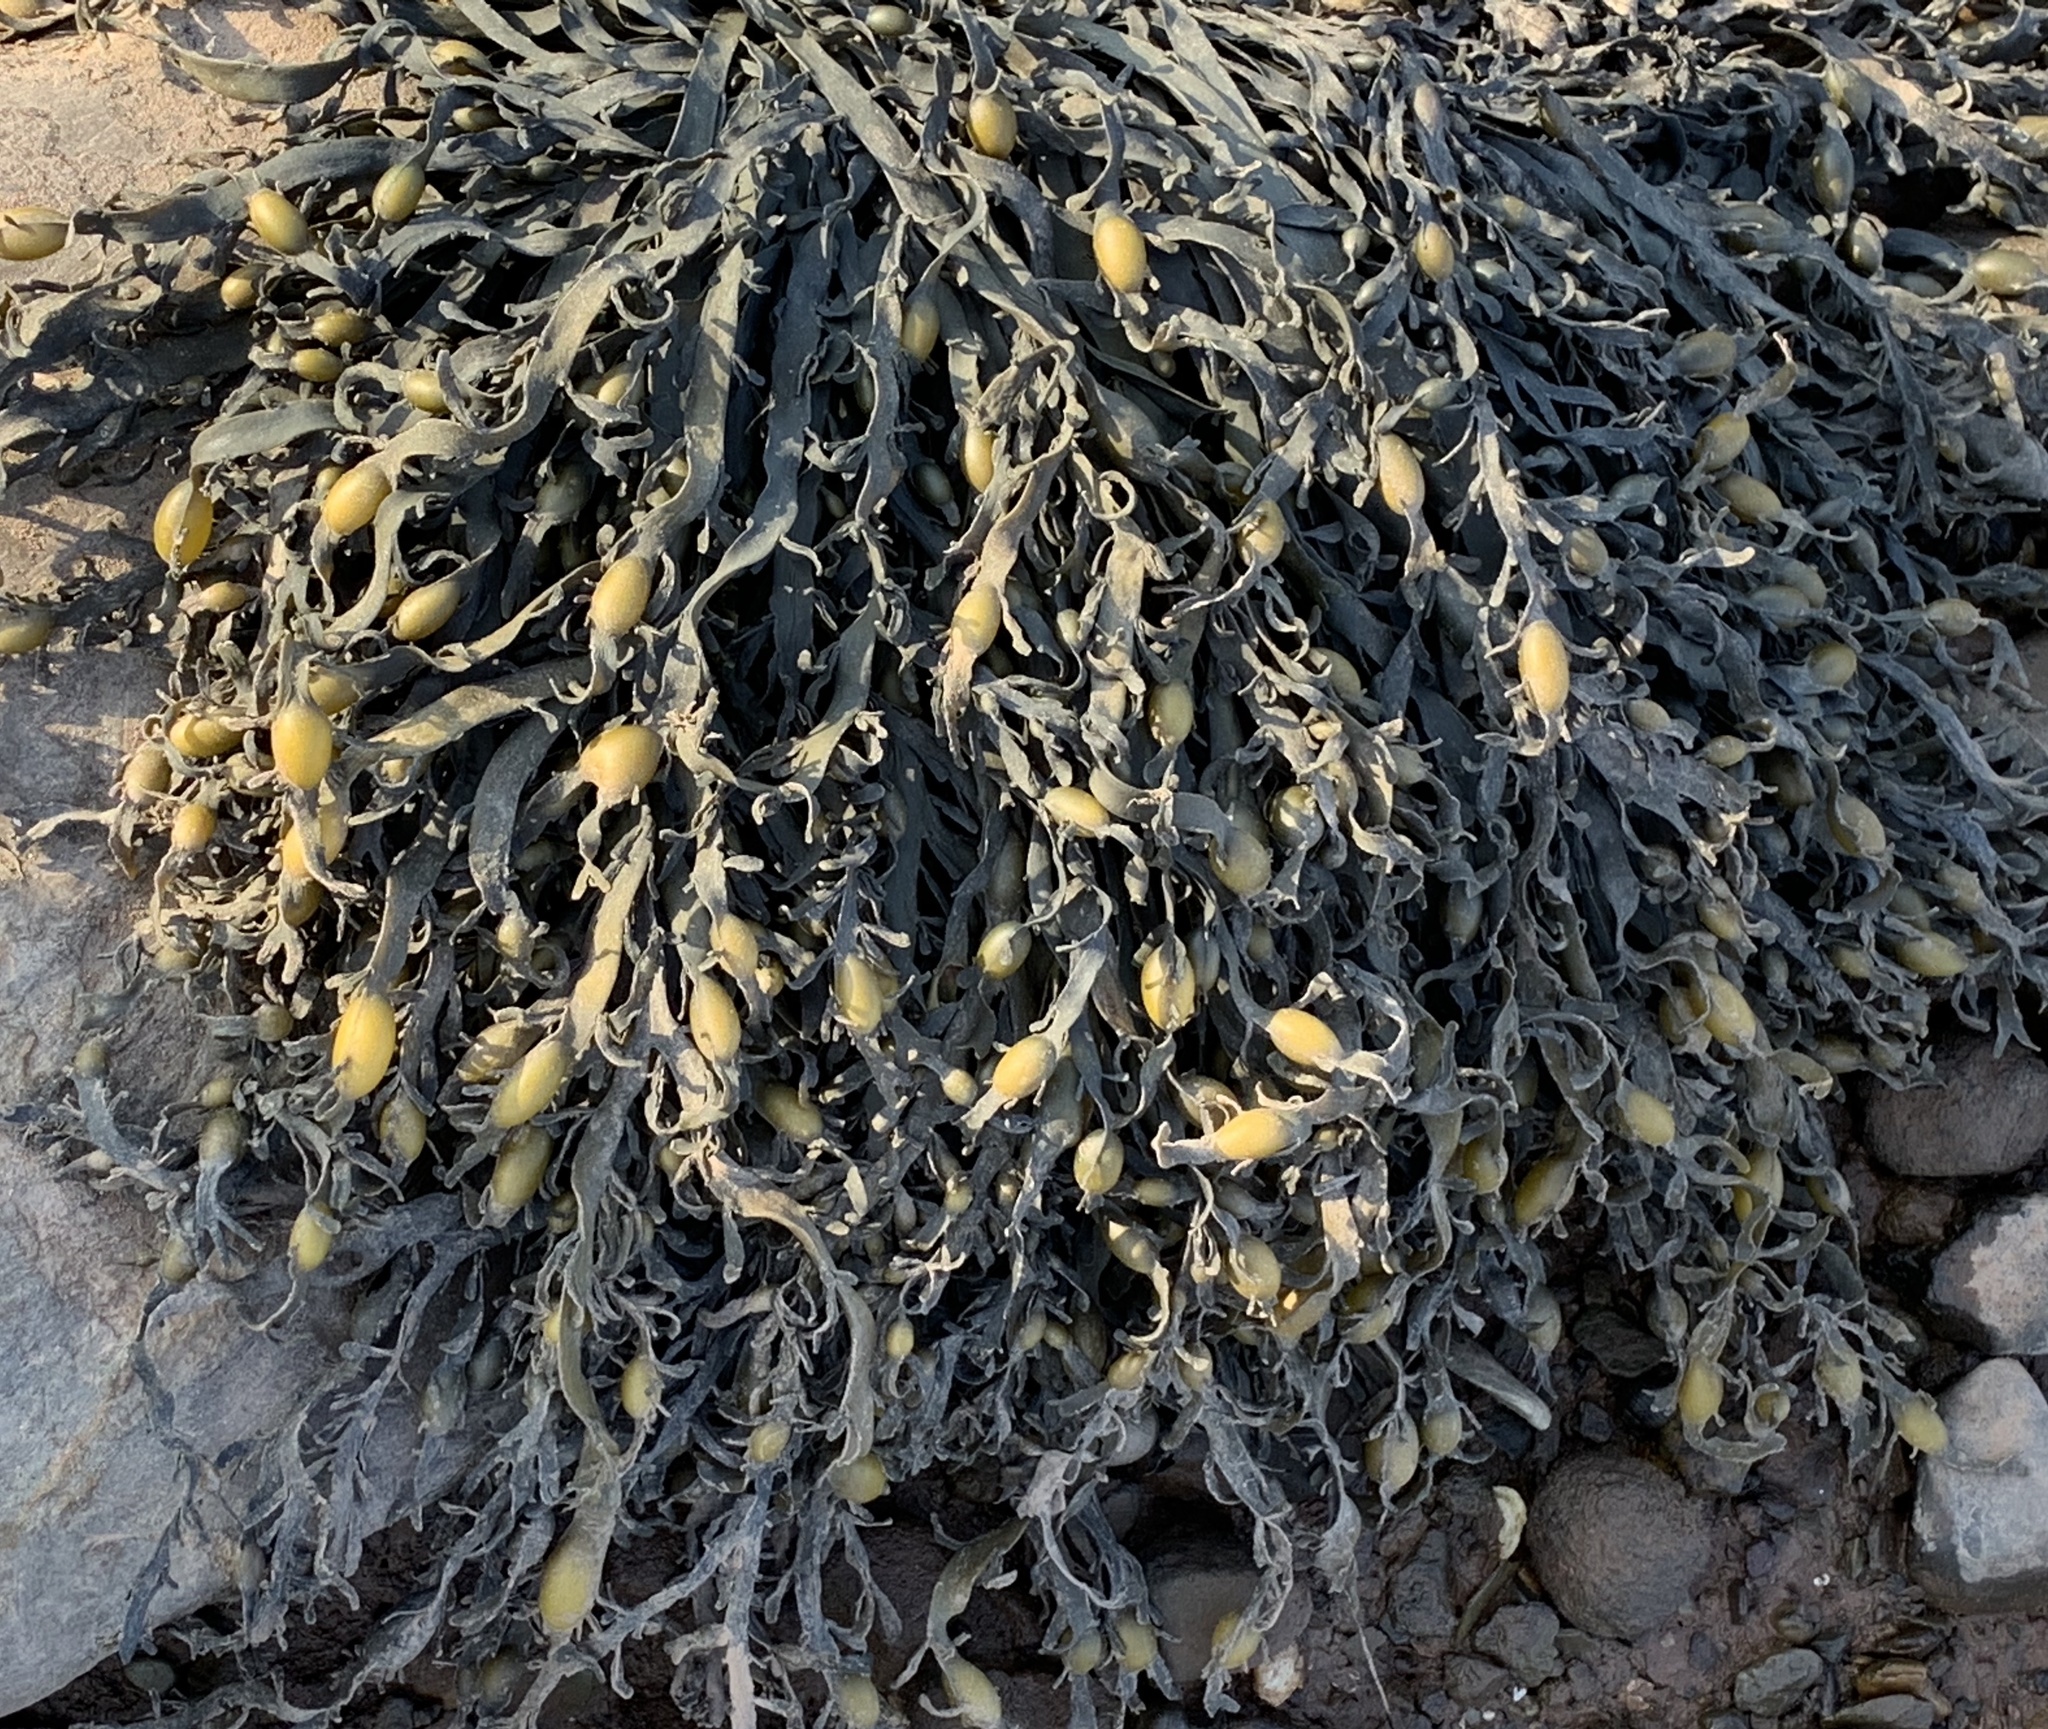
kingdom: Chromista
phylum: Ochrophyta
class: Phaeophyceae
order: Fucales
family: Fucaceae
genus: Ascophyllum
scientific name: Ascophyllum nodosum
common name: Knotted wrack
